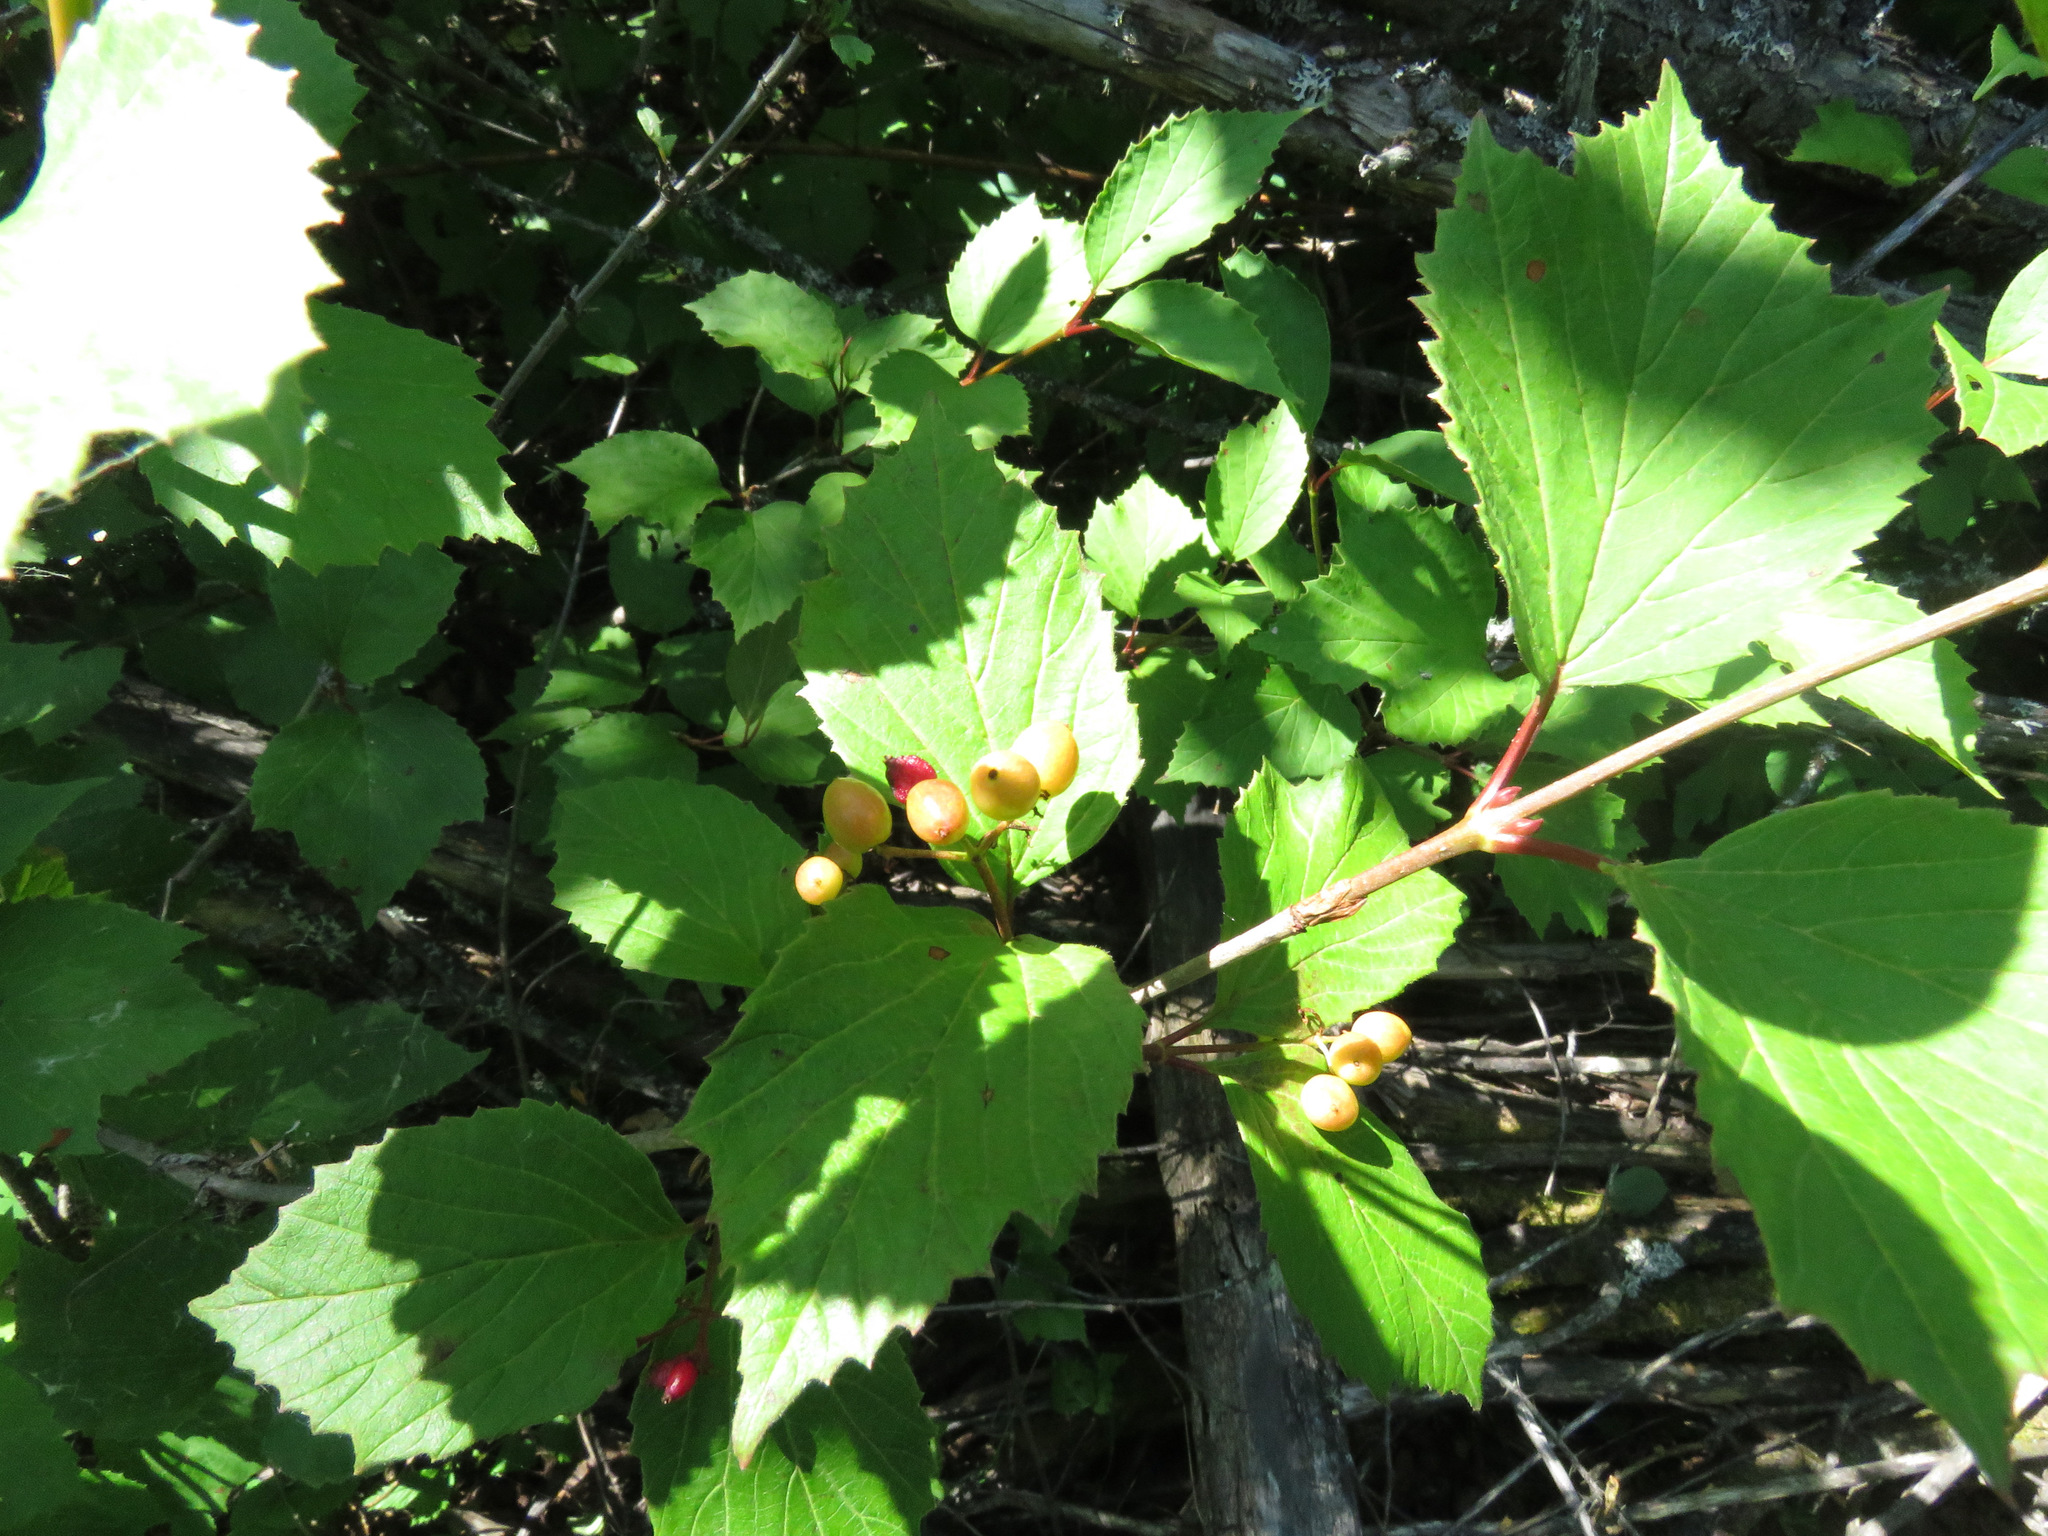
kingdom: Plantae
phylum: Tracheophyta
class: Magnoliopsida
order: Dipsacales
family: Viburnaceae
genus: Viburnum
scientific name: Viburnum edule
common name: Mooseberry
